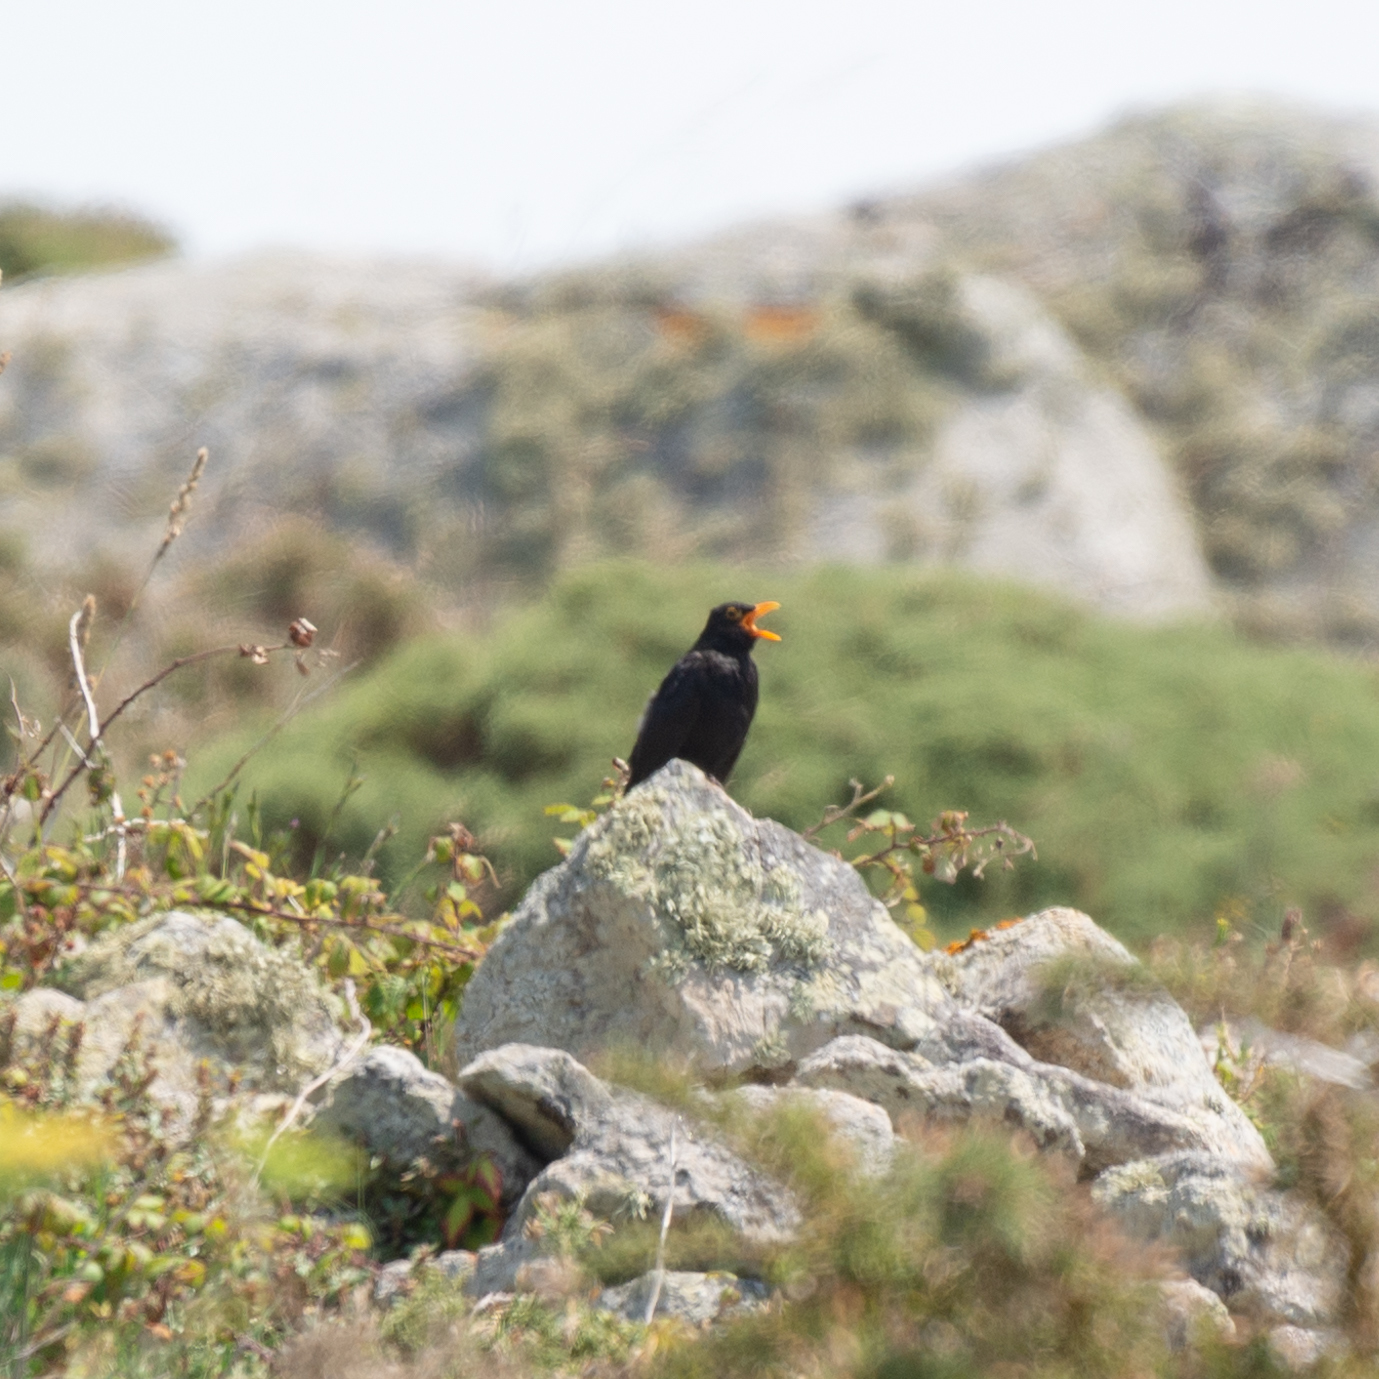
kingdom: Animalia
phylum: Chordata
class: Aves
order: Passeriformes
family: Turdidae
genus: Turdus
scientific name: Turdus merula
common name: Common blackbird
